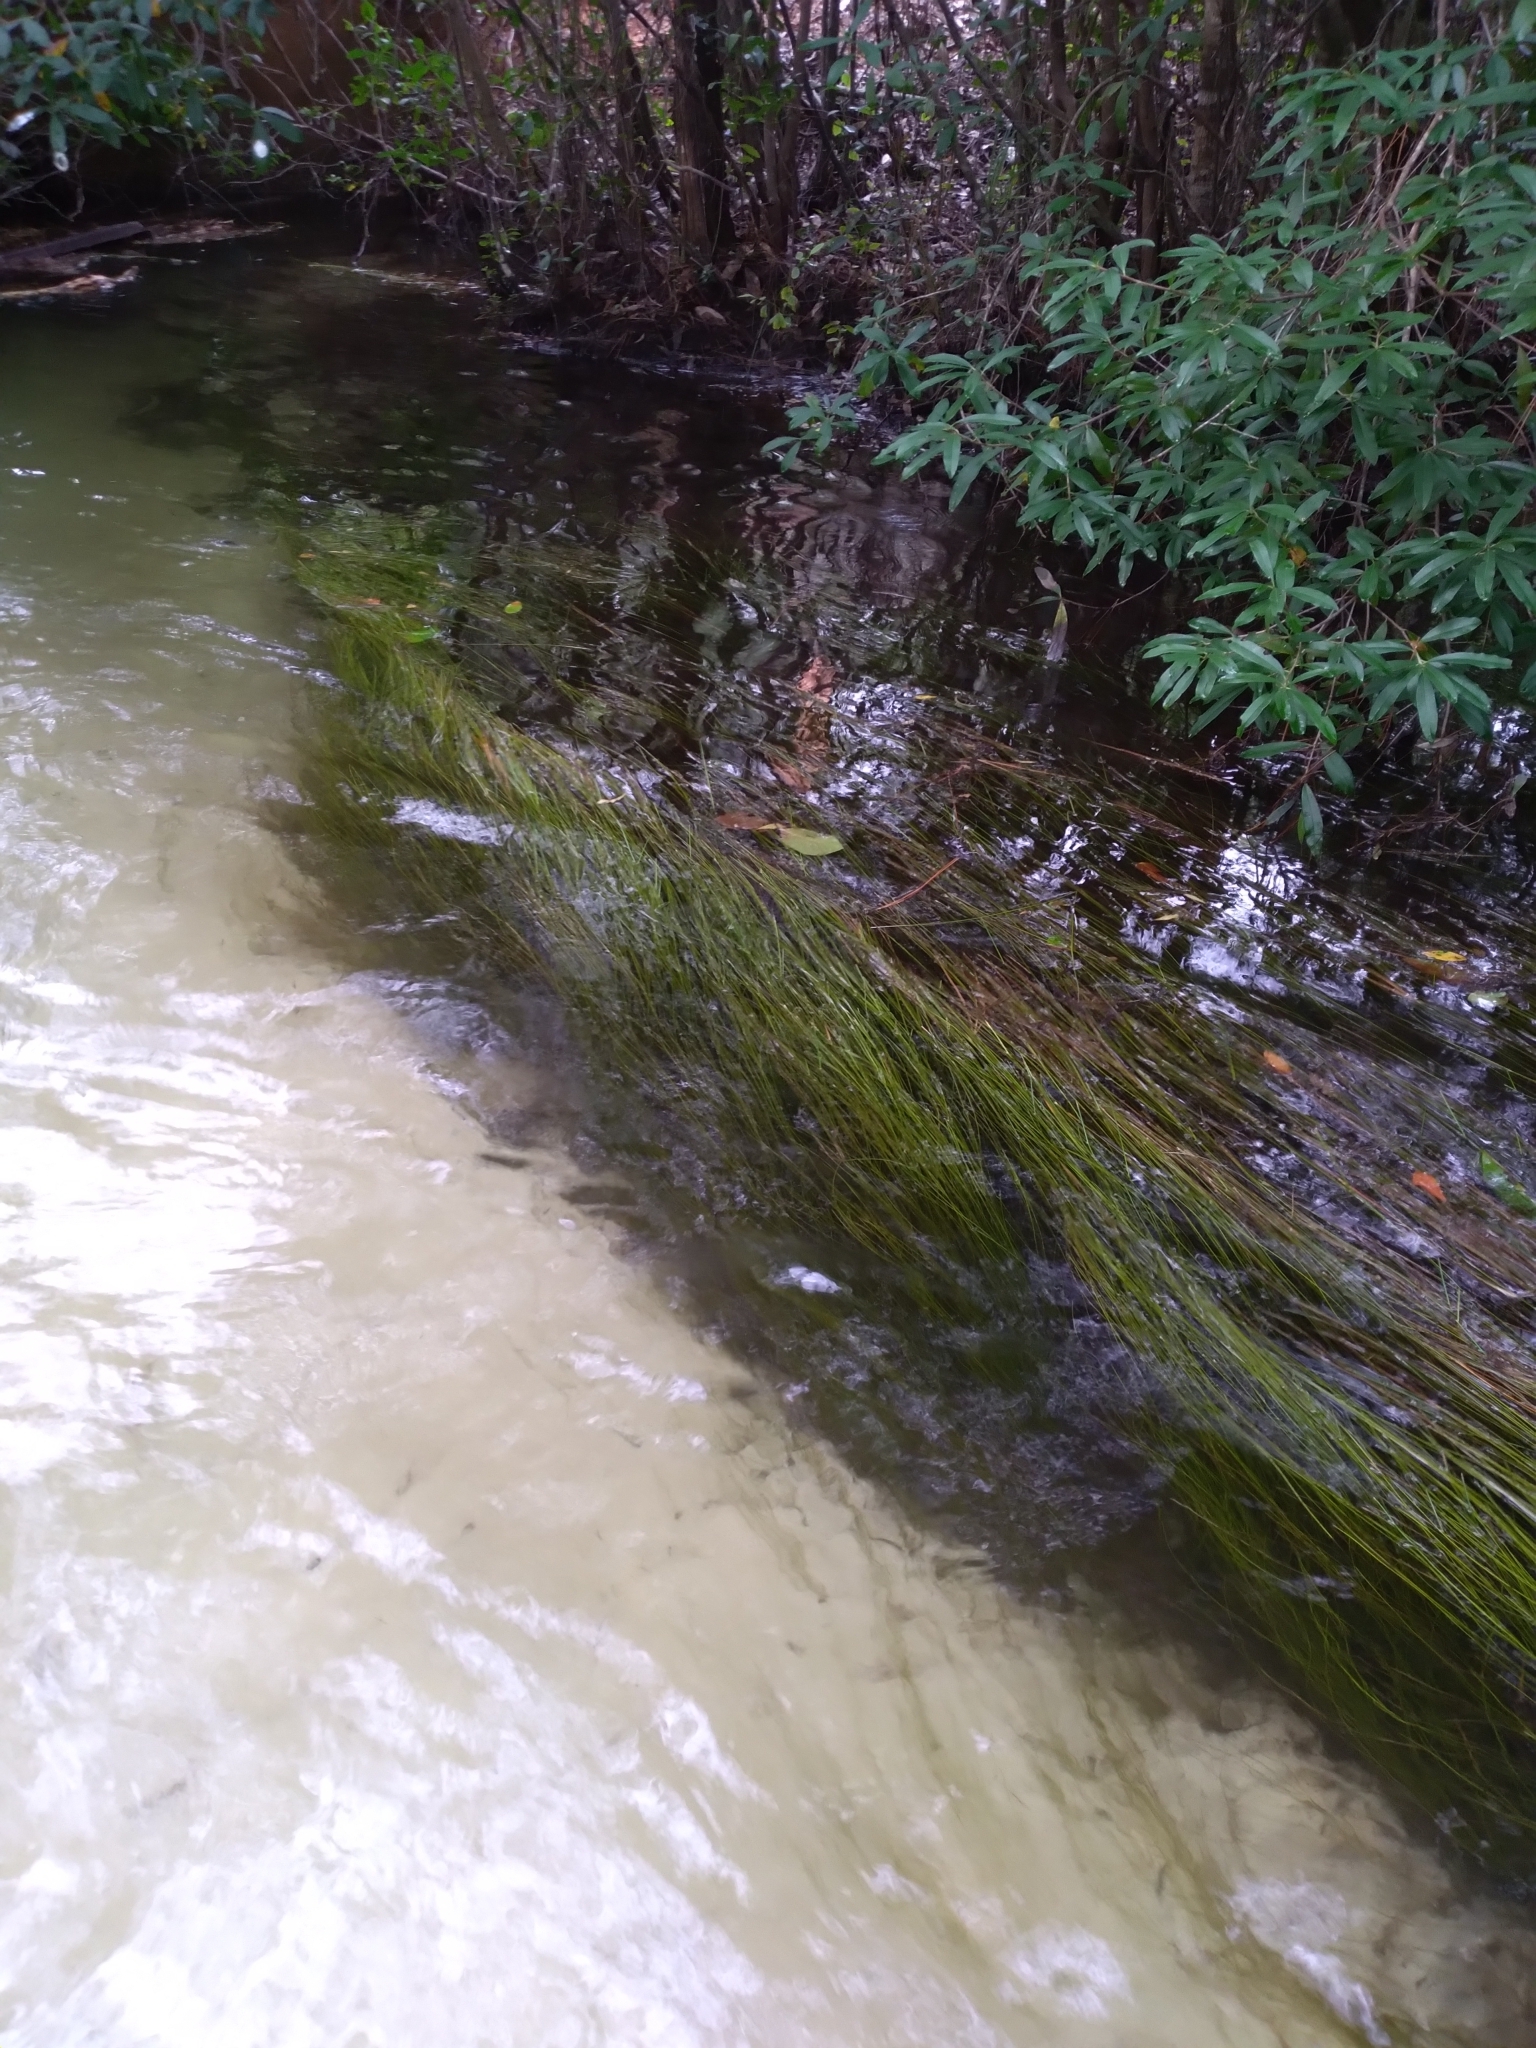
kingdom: Plantae
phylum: Tracheophyta
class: Liliopsida
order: Poales
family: Cyperaceae
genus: Eleocharis
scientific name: Eleocharis elongata
